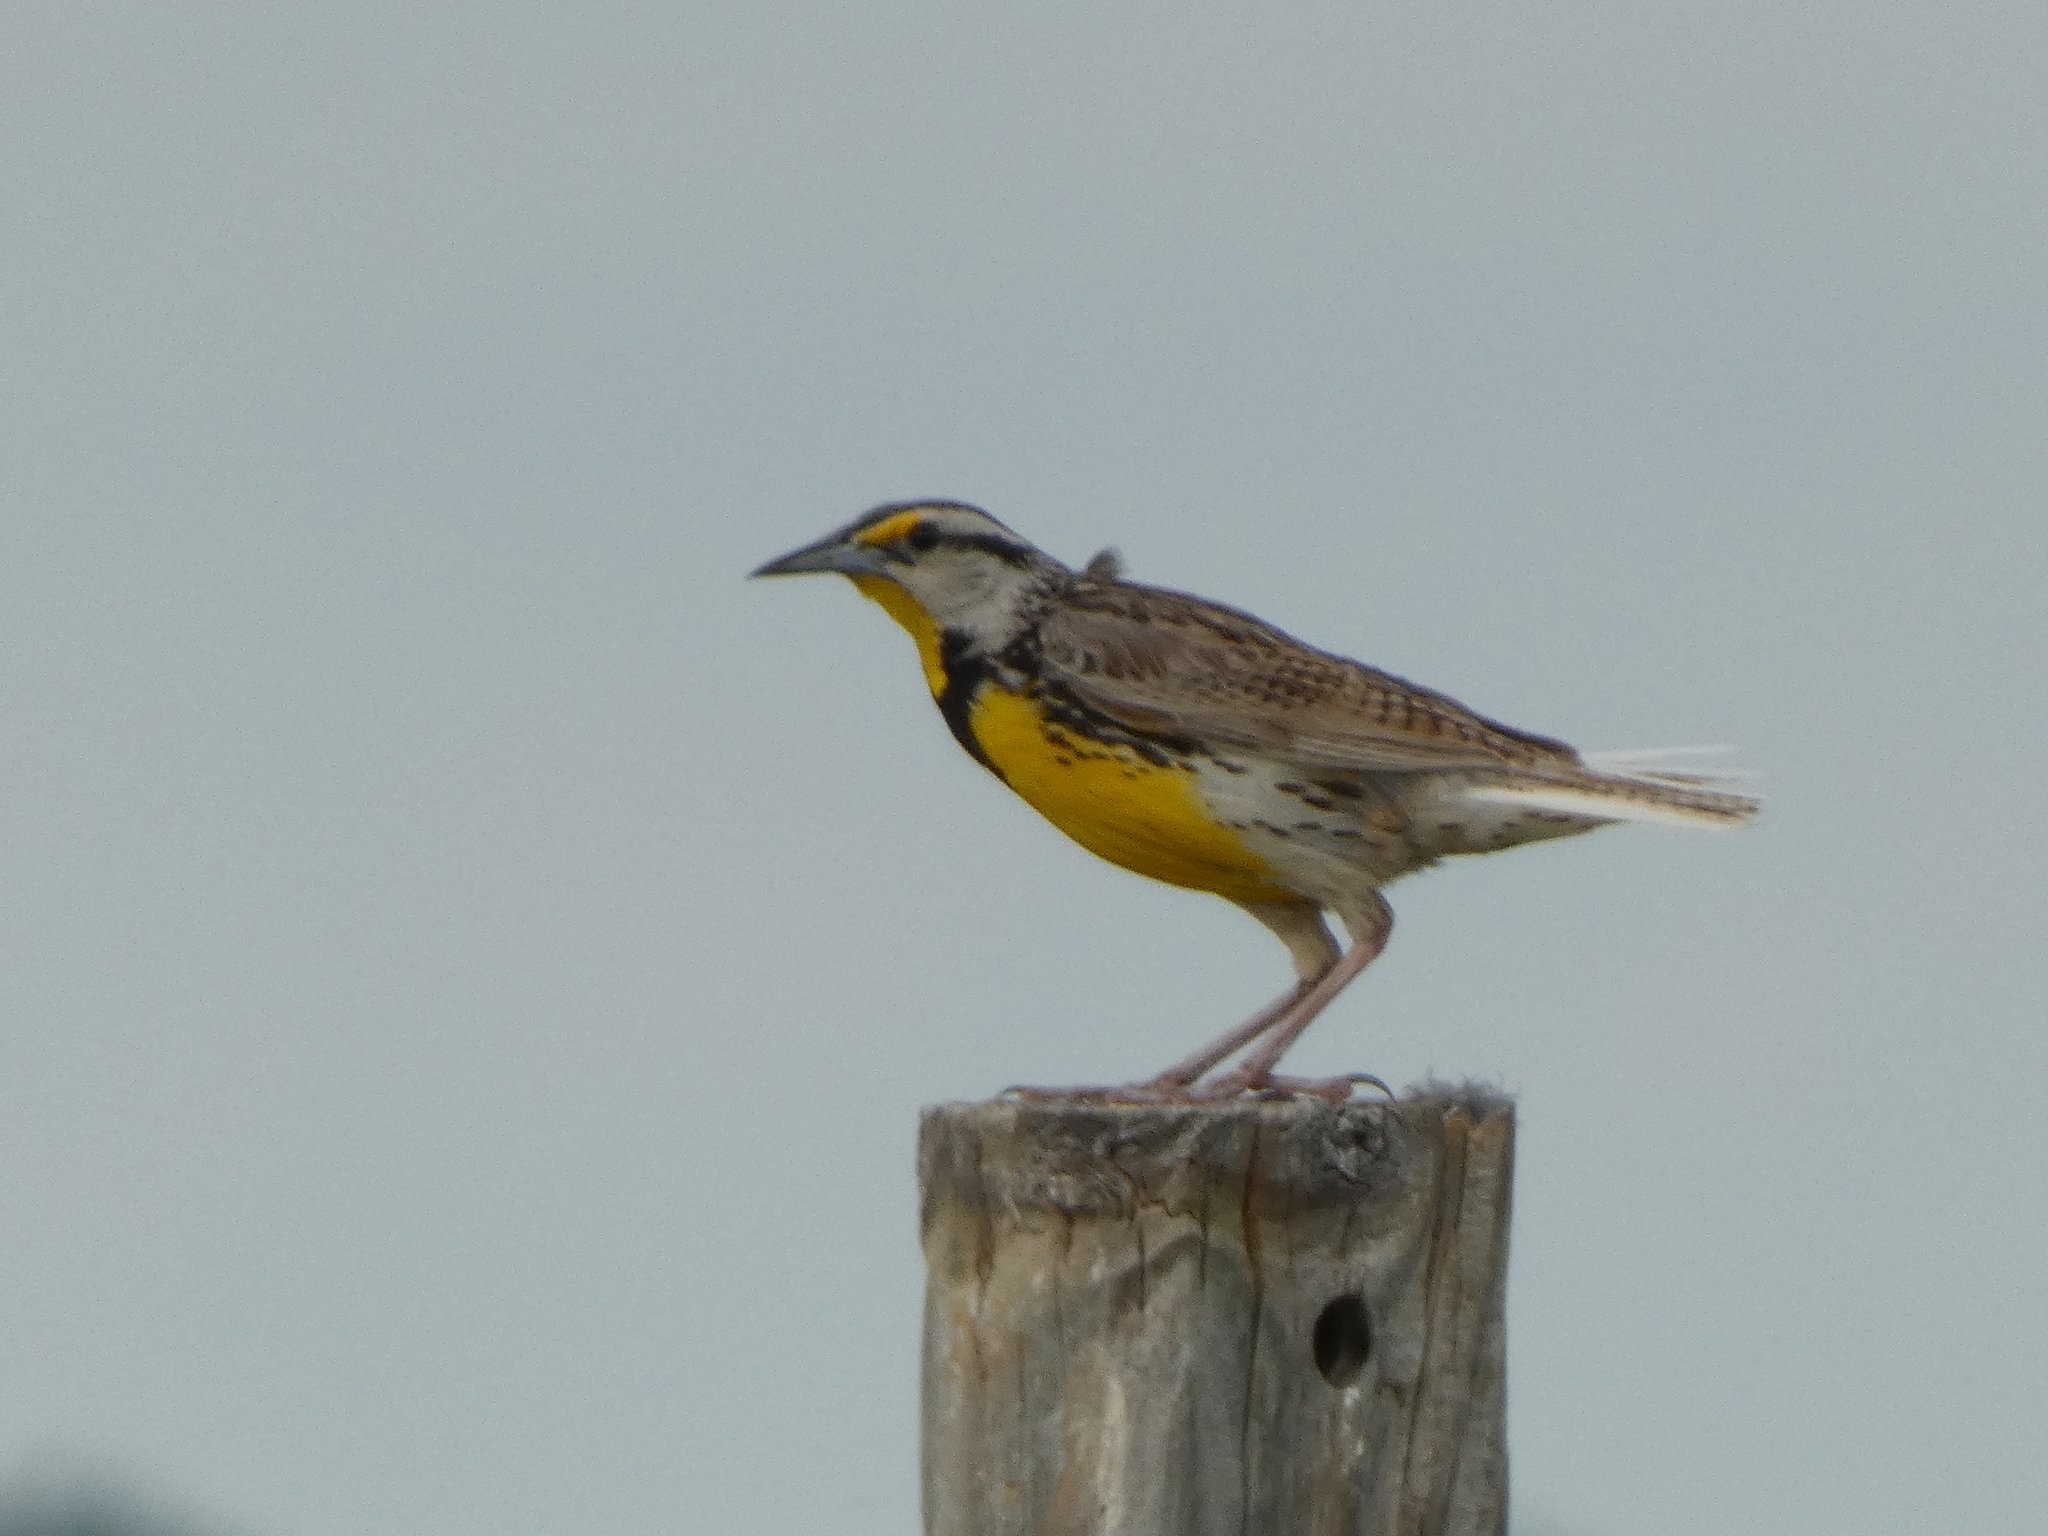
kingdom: Animalia
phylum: Chordata
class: Aves
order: Passeriformes
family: Icteridae
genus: Sturnella
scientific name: Sturnella magna
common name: Eastern meadowlark
